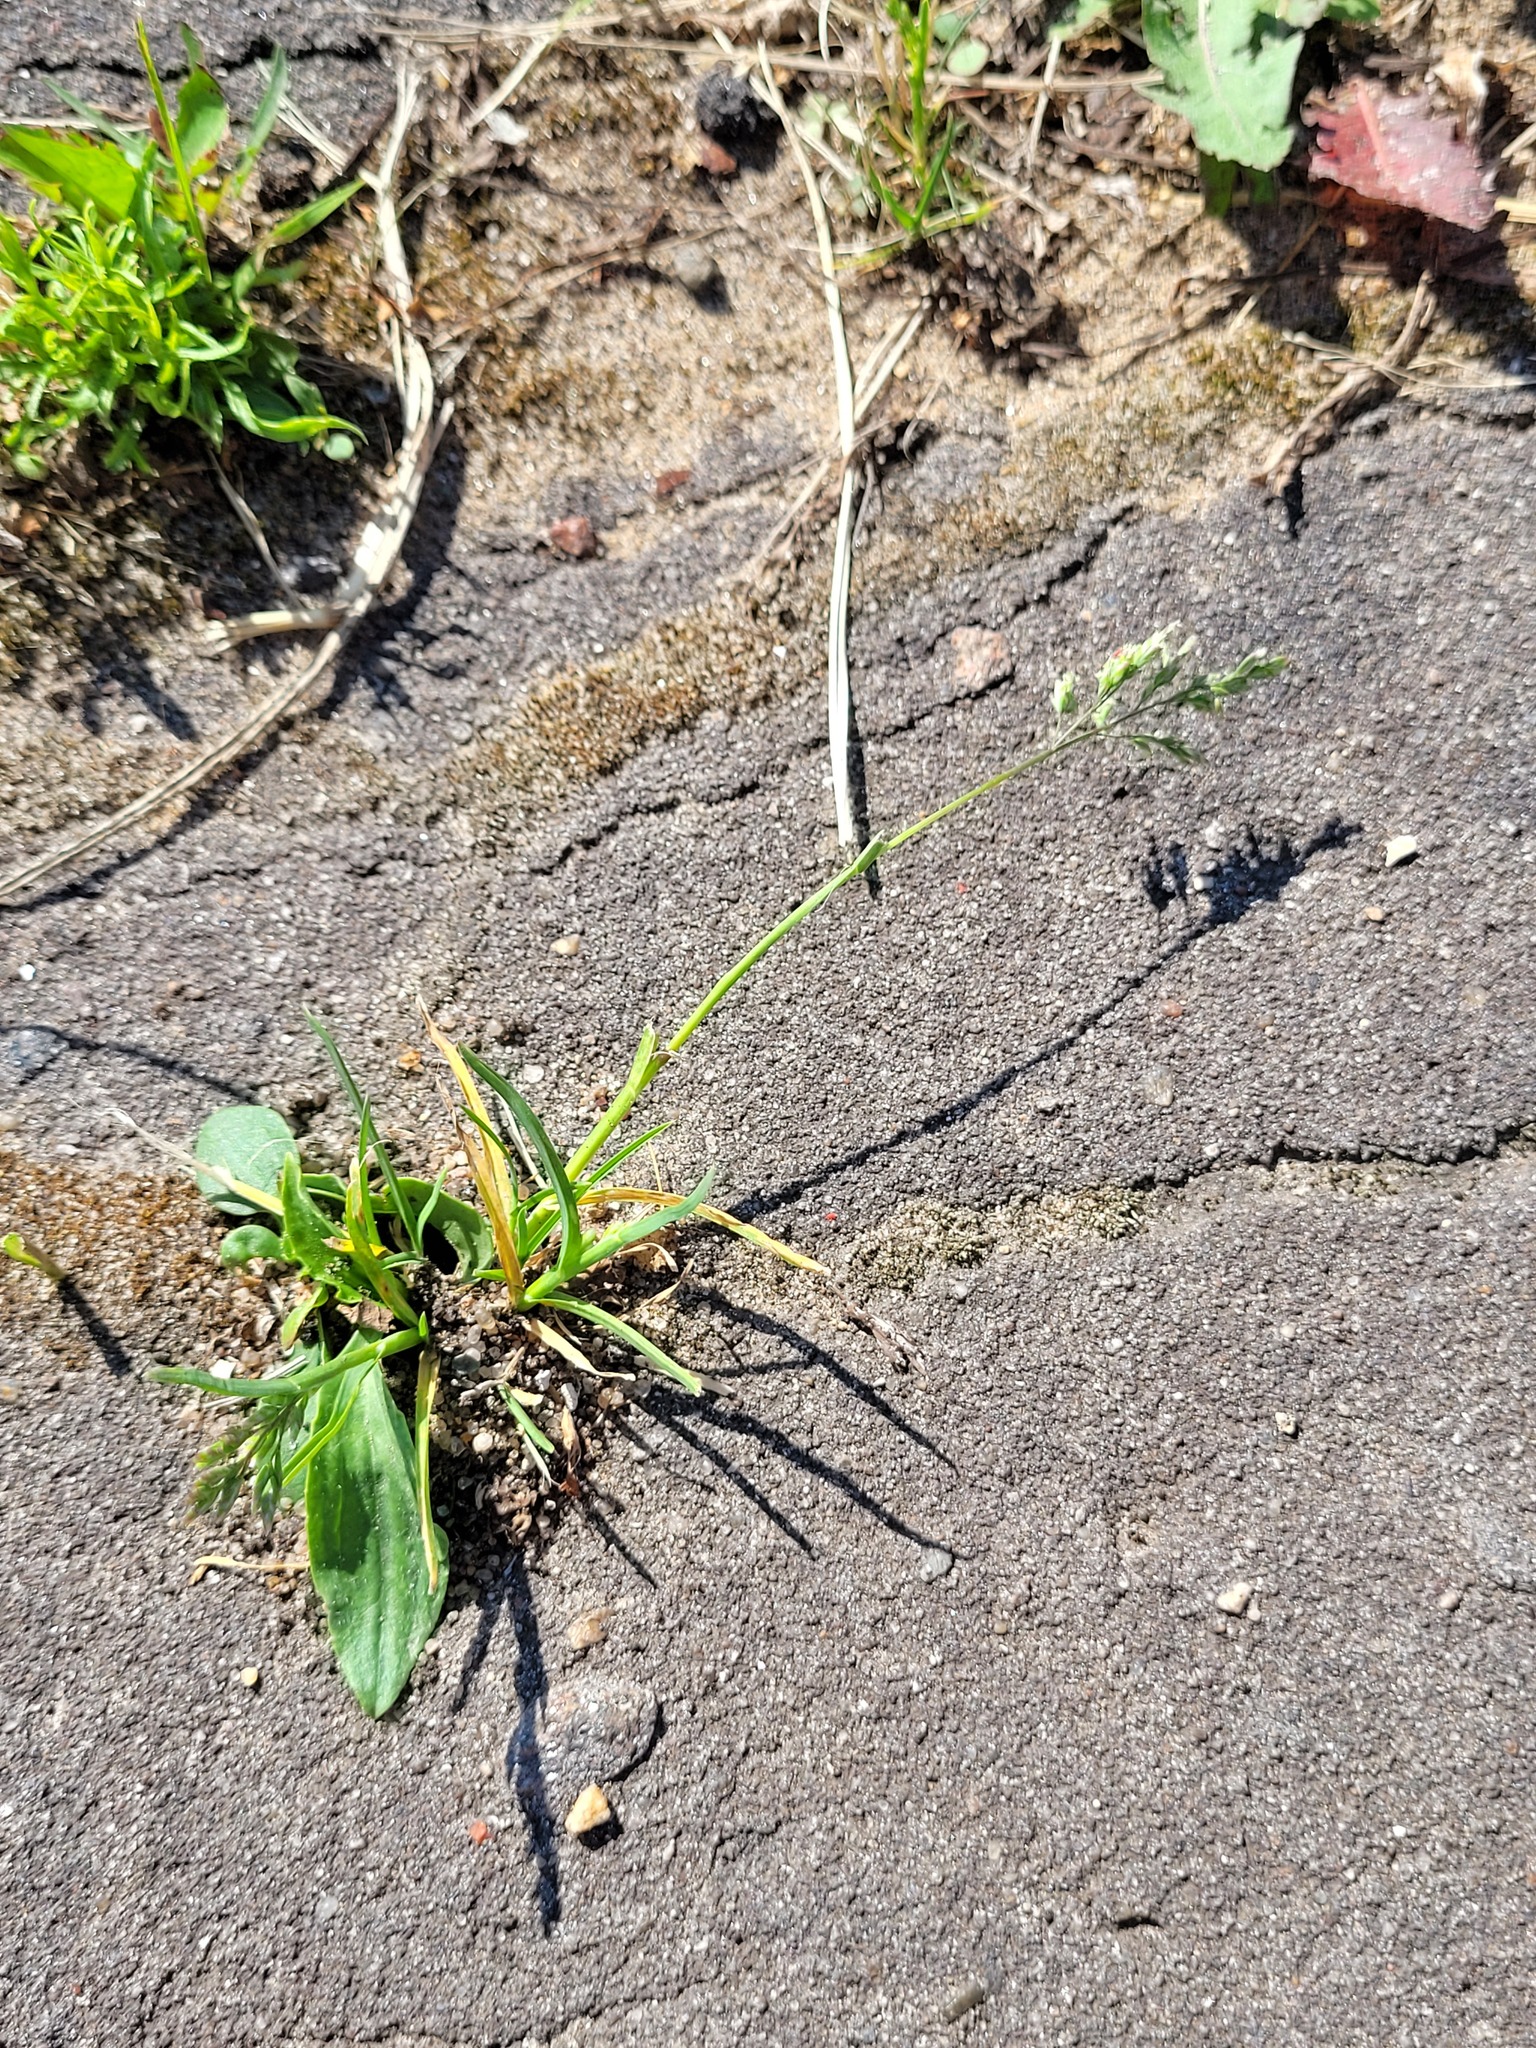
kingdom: Plantae
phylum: Tracheophyta
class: Liliopsida
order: Poales
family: Poaceae
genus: Poa
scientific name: Poa annua
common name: Annual bluegrass
